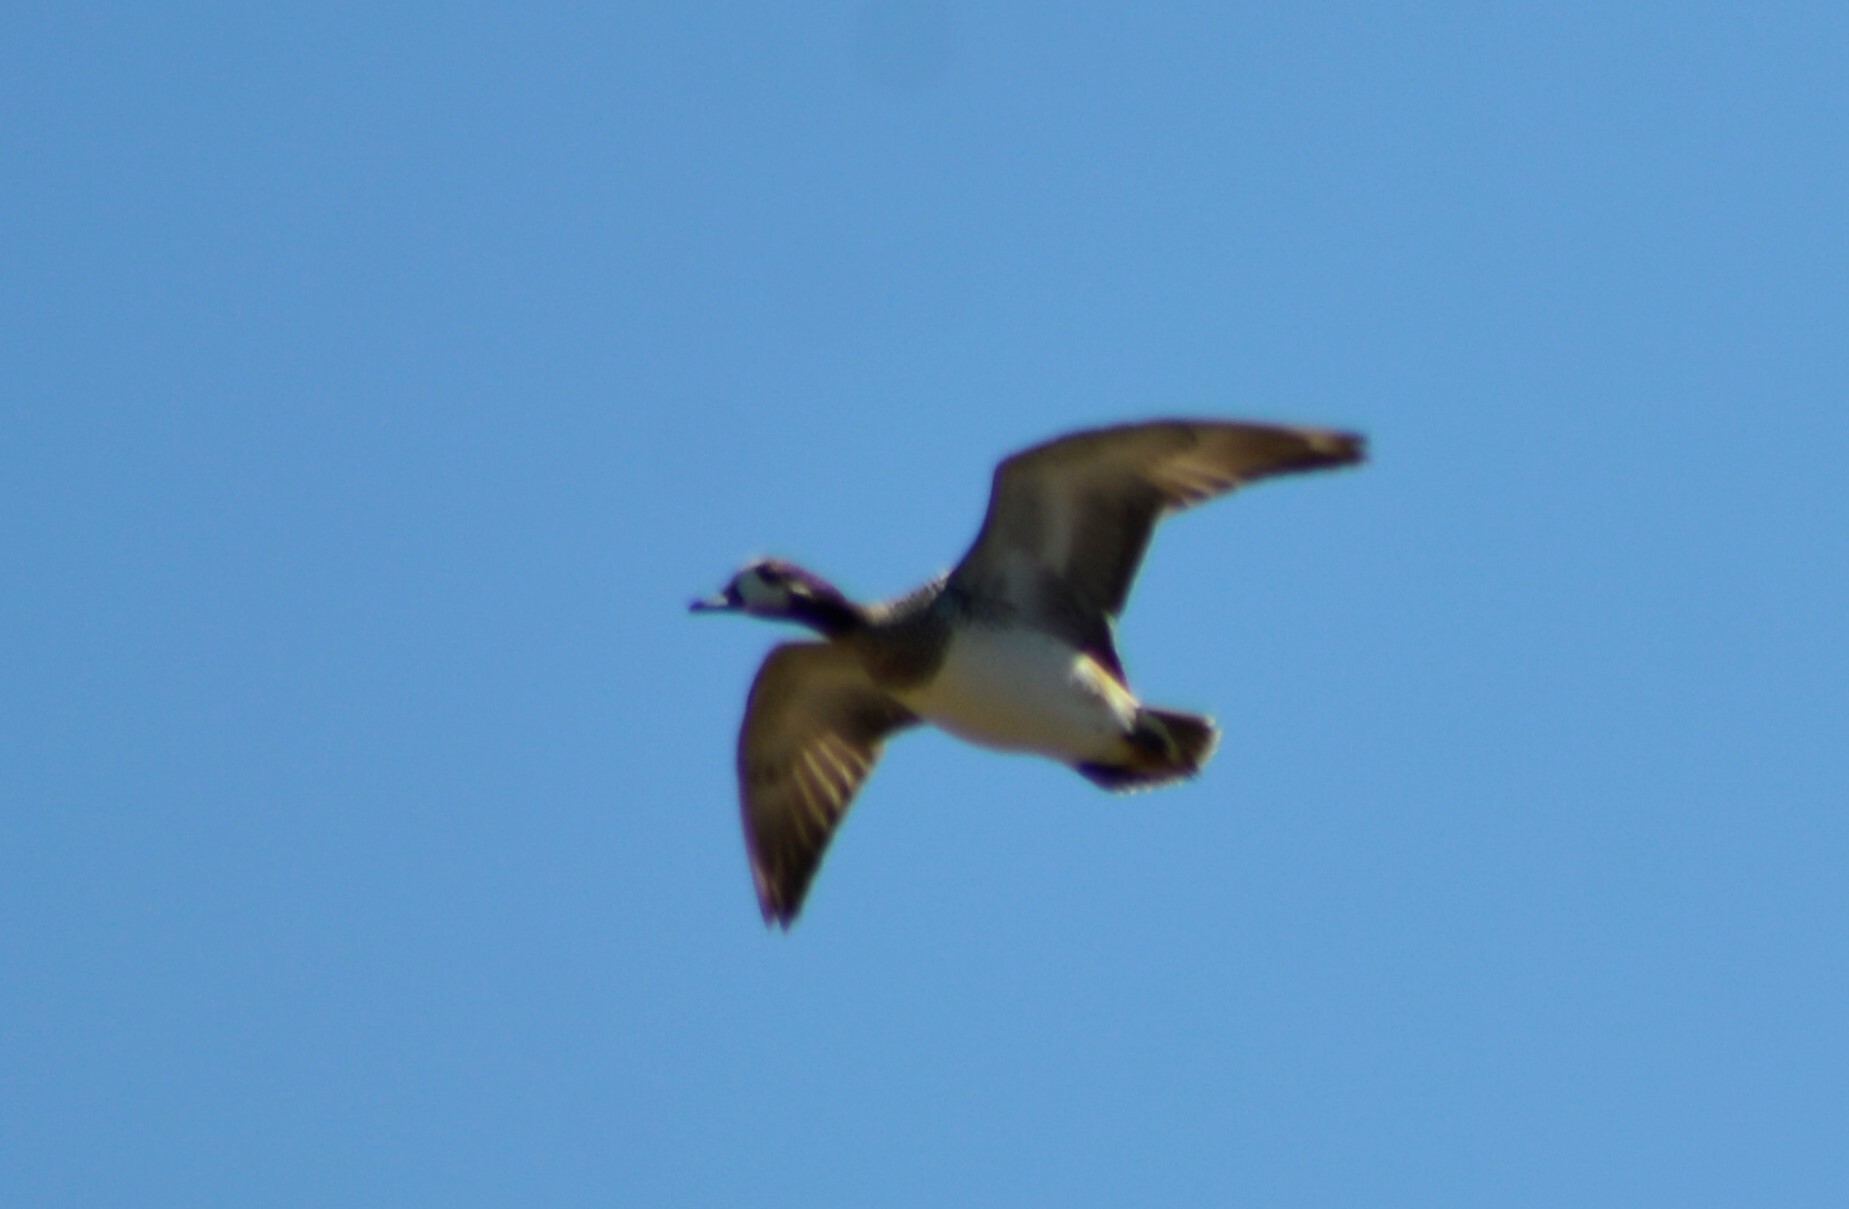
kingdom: Animalia
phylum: Chordata
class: Aves
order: Anseriformes
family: Anatidae
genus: Mareca
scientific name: Mareca sibilatrix
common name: Chiloe wigeon
